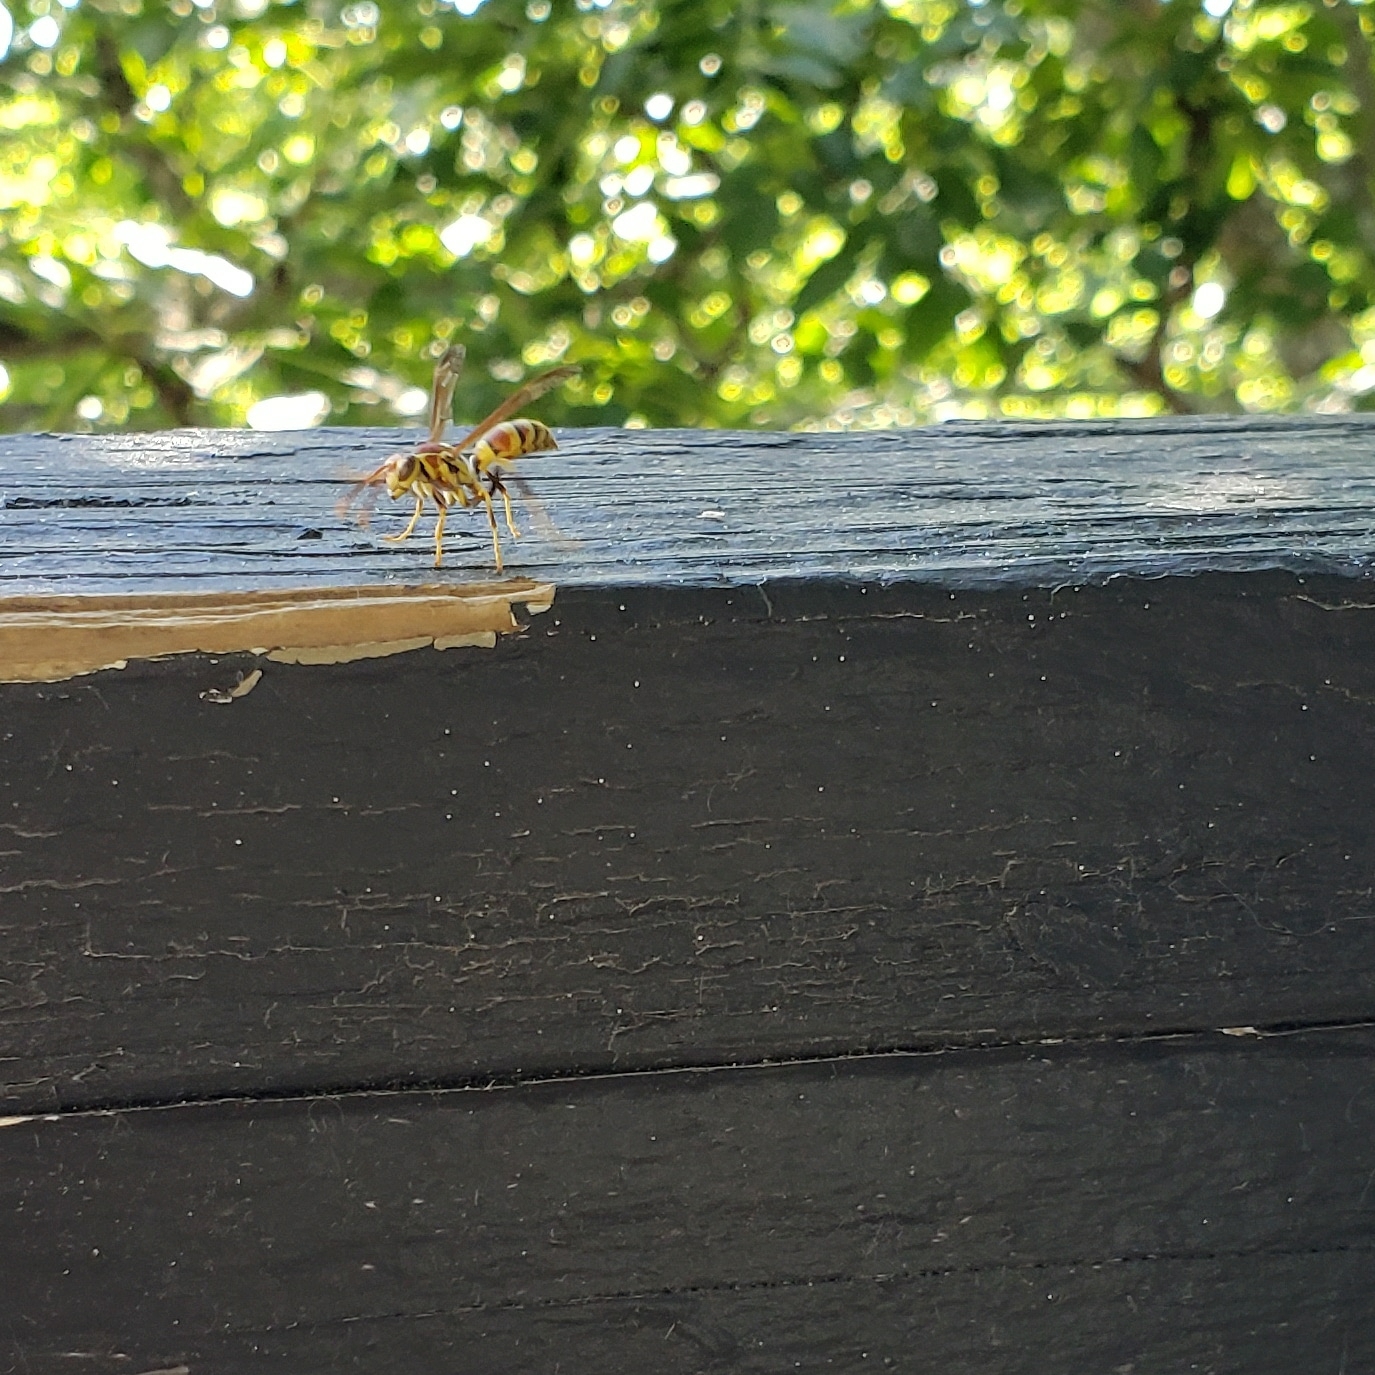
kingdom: Animalia
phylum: Arthropoda
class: Insecta
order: Hymenoptera
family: Eumenidae
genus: Polistes
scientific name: Polistes exclamans
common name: Paper wasp
